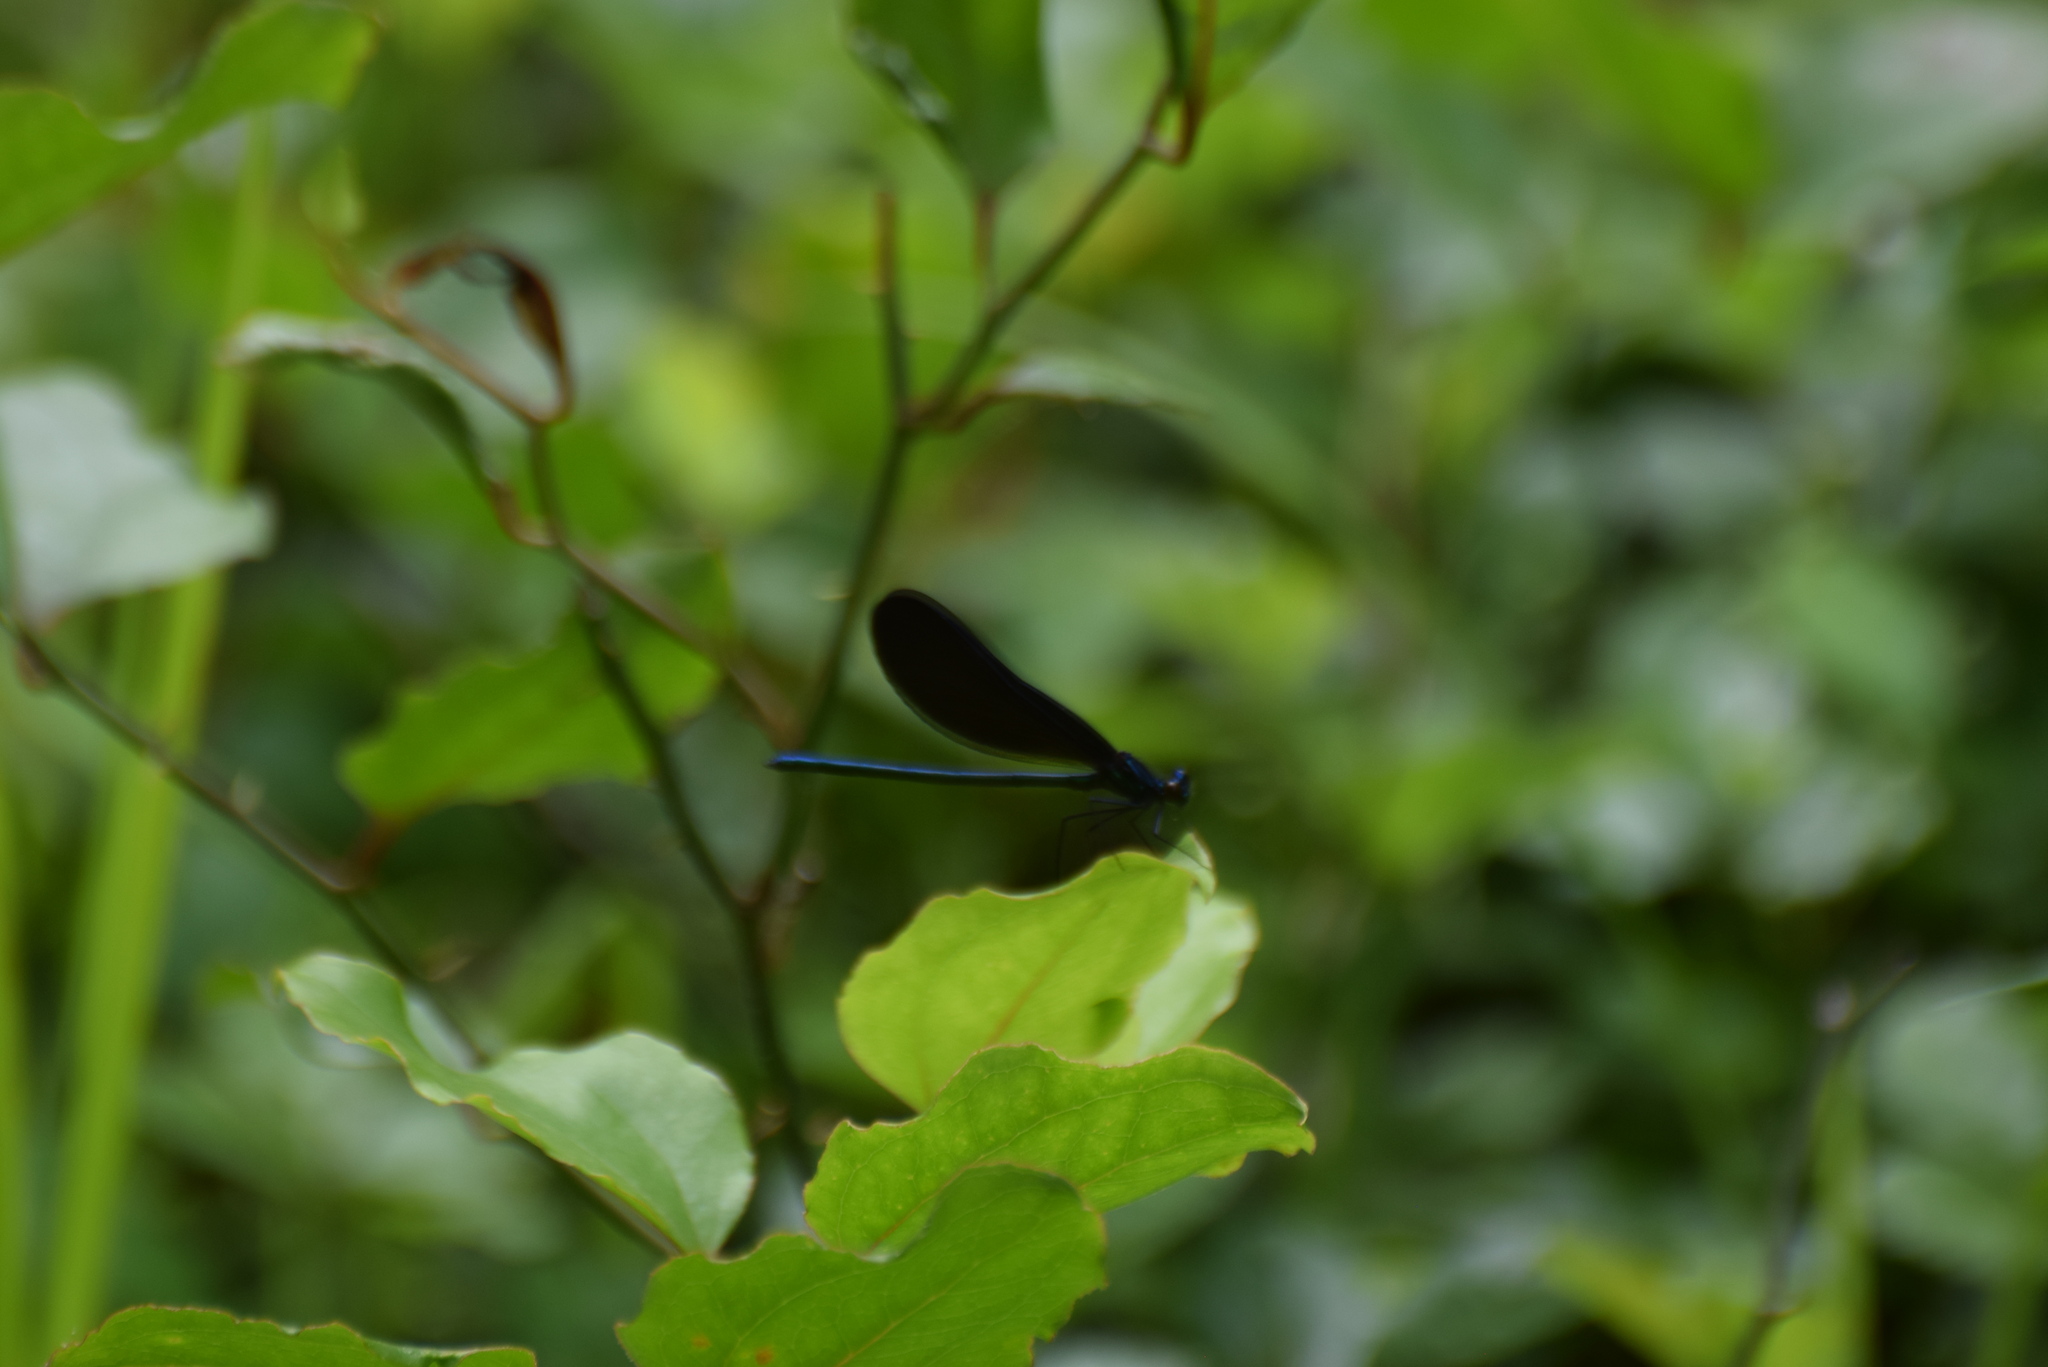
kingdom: Animalia
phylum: Arthropoda
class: Insecta
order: Odonata
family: Calopterygidae
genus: Calopteryx
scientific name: Calopteryx maculata
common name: Ebony jewelwing
